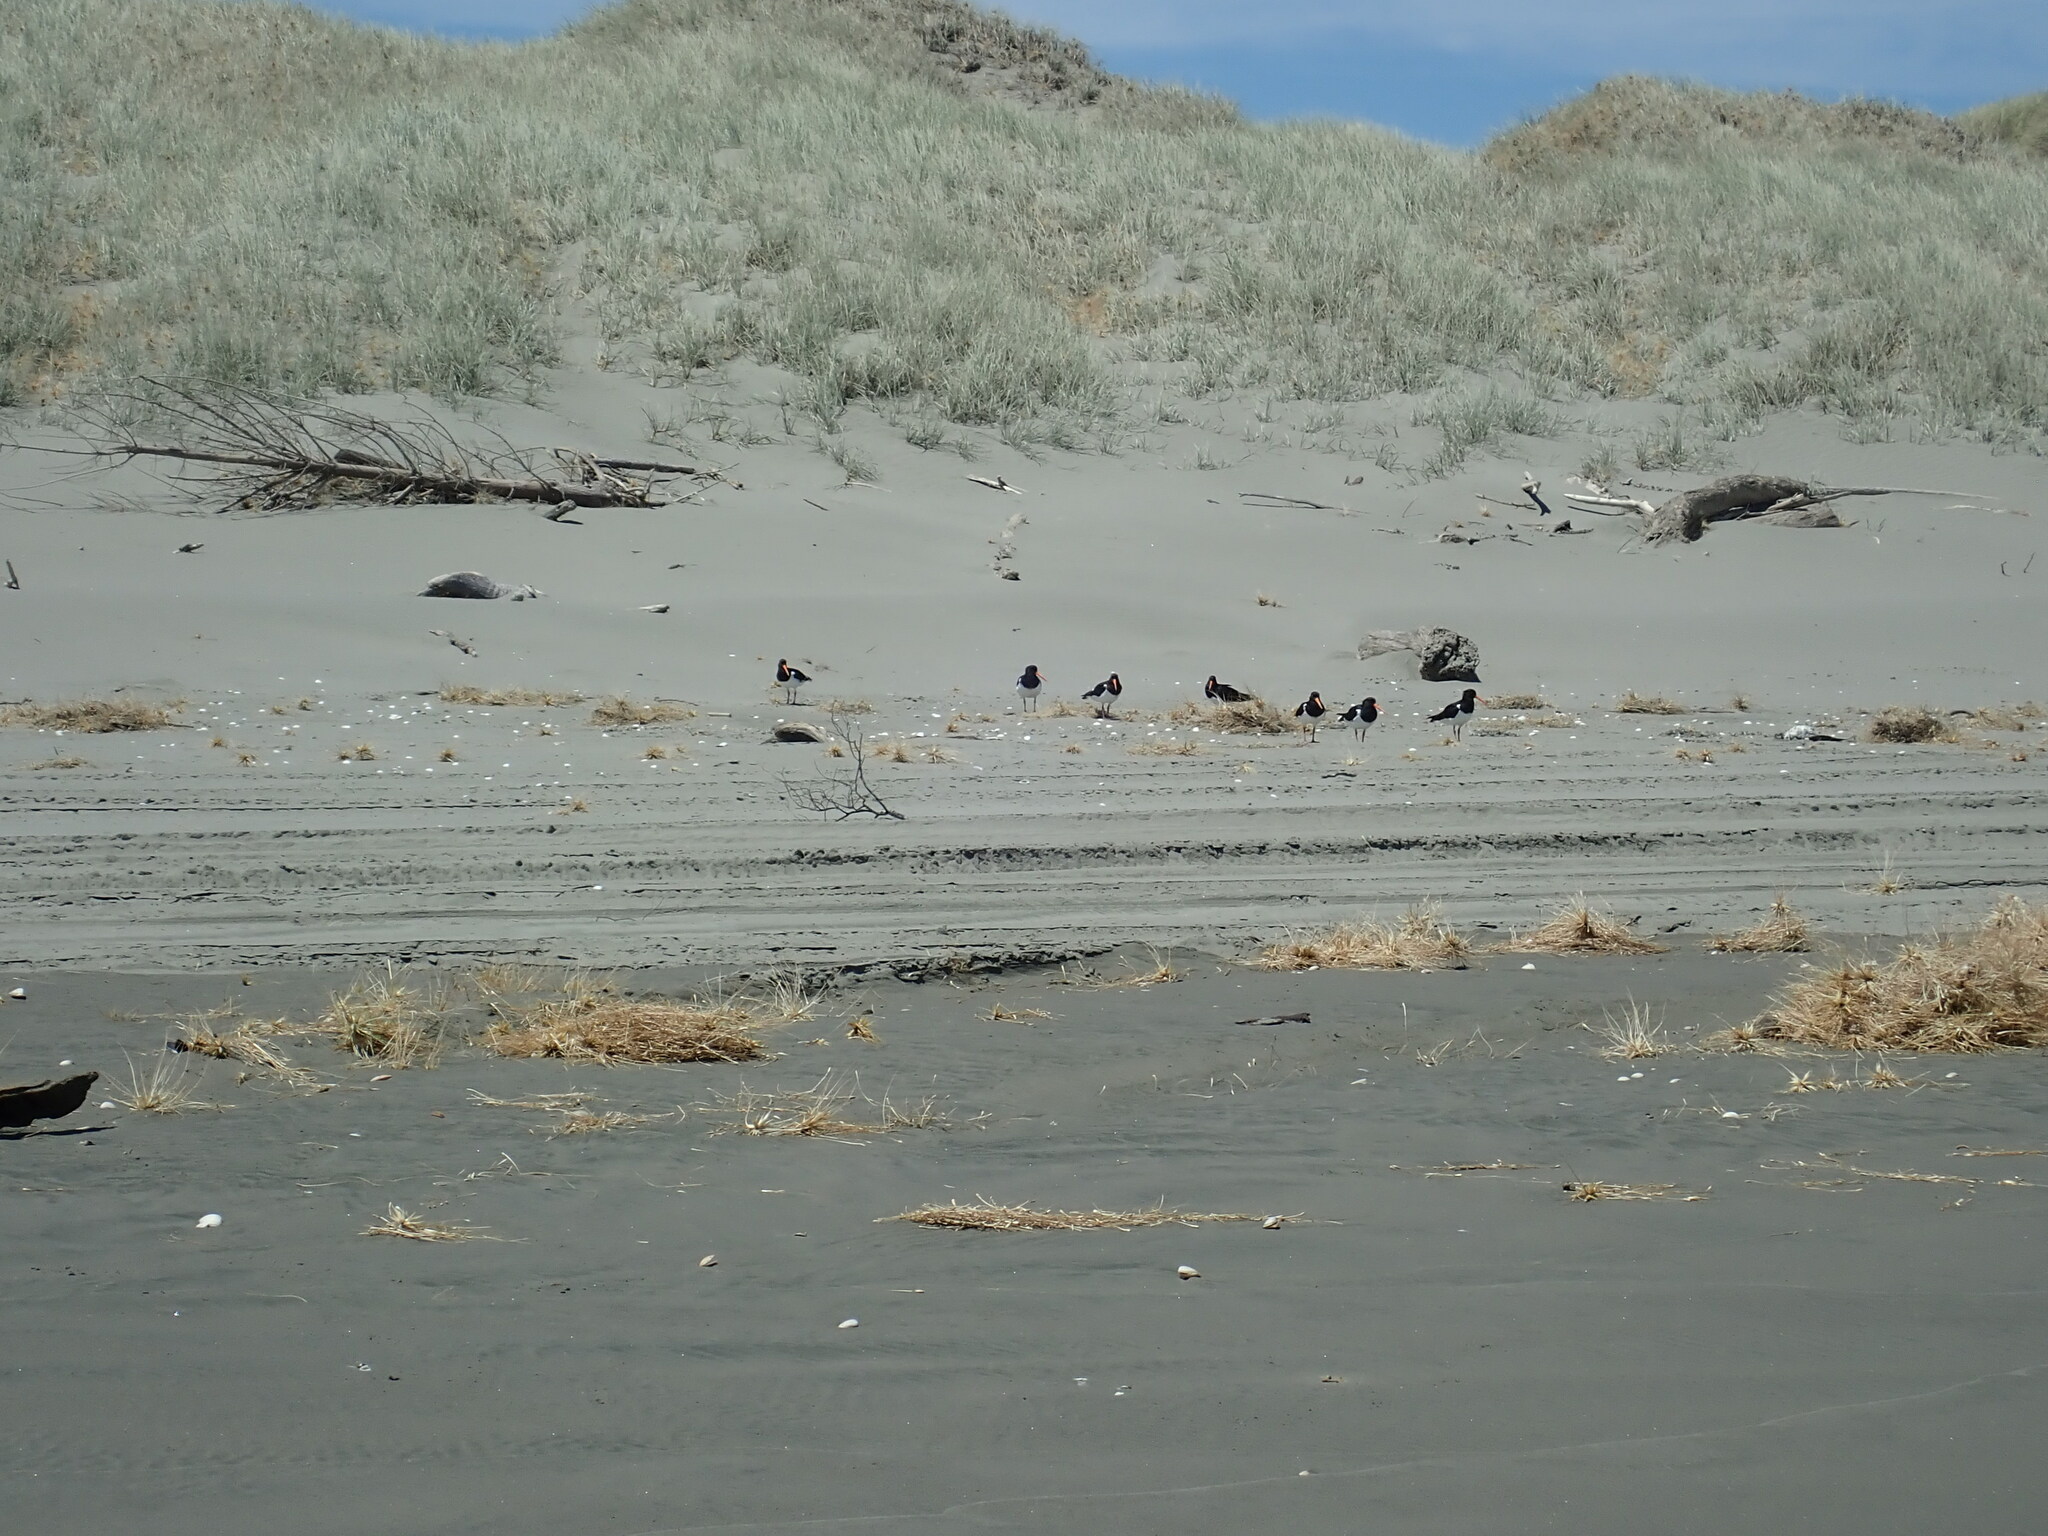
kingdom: Animalia
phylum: Chordata
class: Aves
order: Charadriiformes
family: Haematopodidae
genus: Haematopus
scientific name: Haematopus finschi
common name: South island oystercatcher
